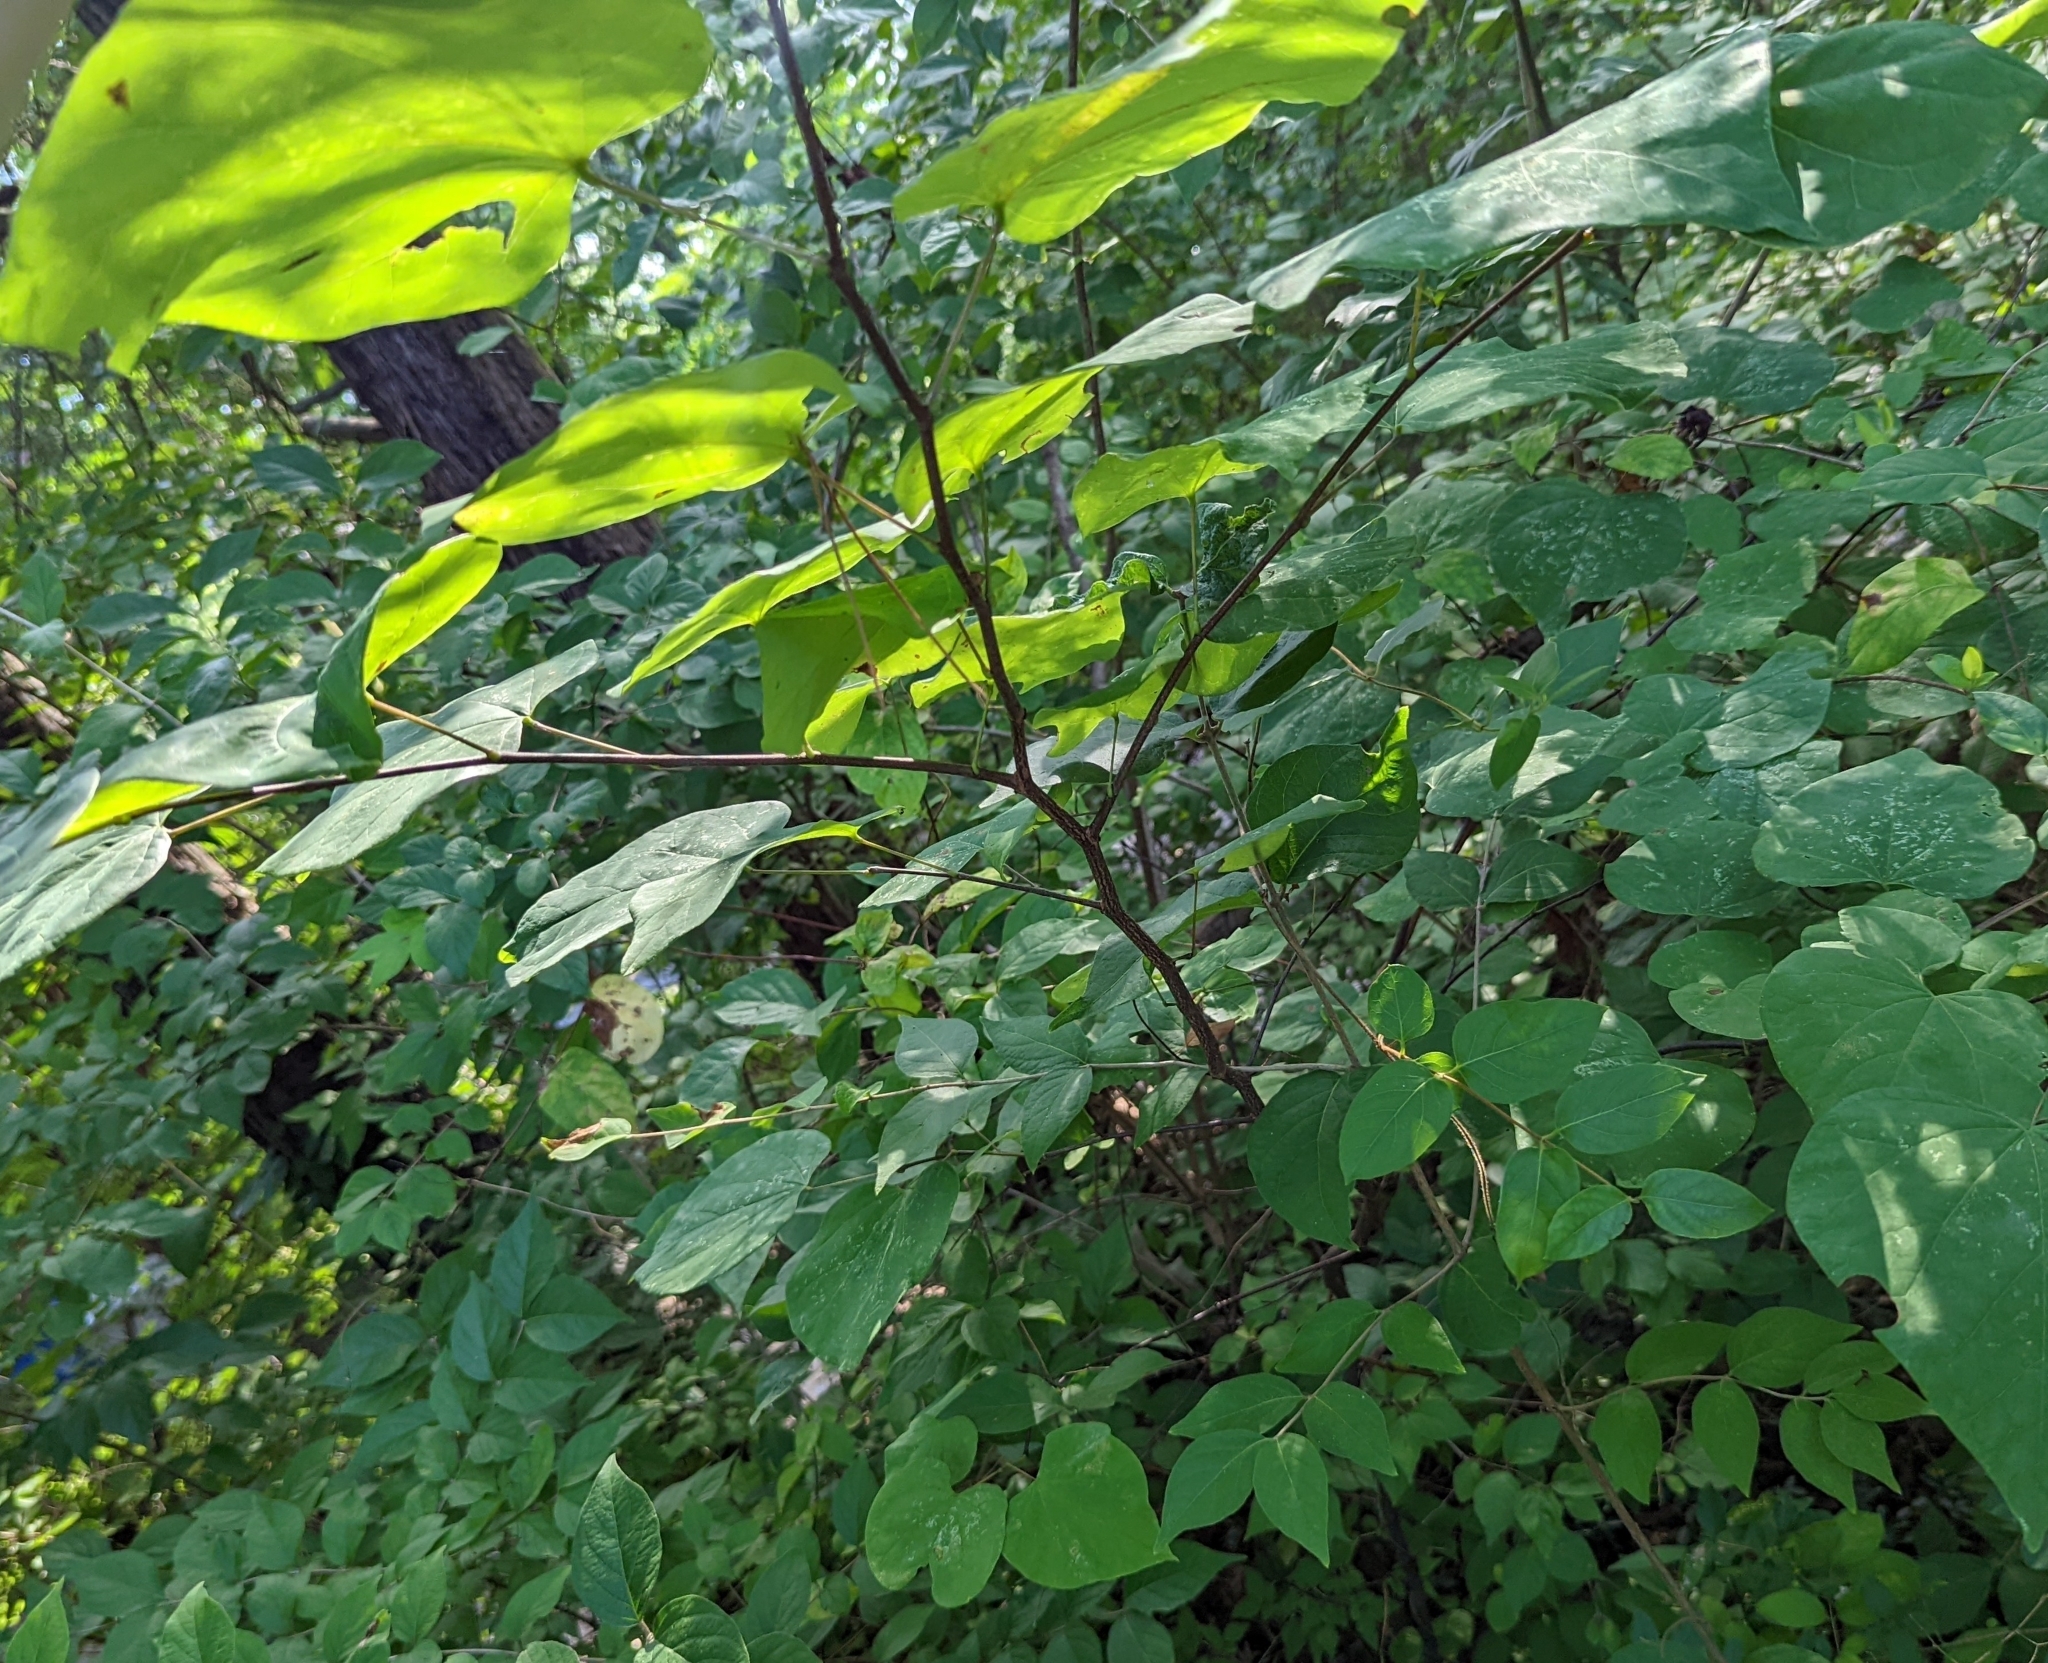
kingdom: Plantae
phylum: Tracheophyta
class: Magnoliopsida
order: Fabales
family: Fabaceae
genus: Cercis
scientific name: Cercis canadensis
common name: Eastern redbud
